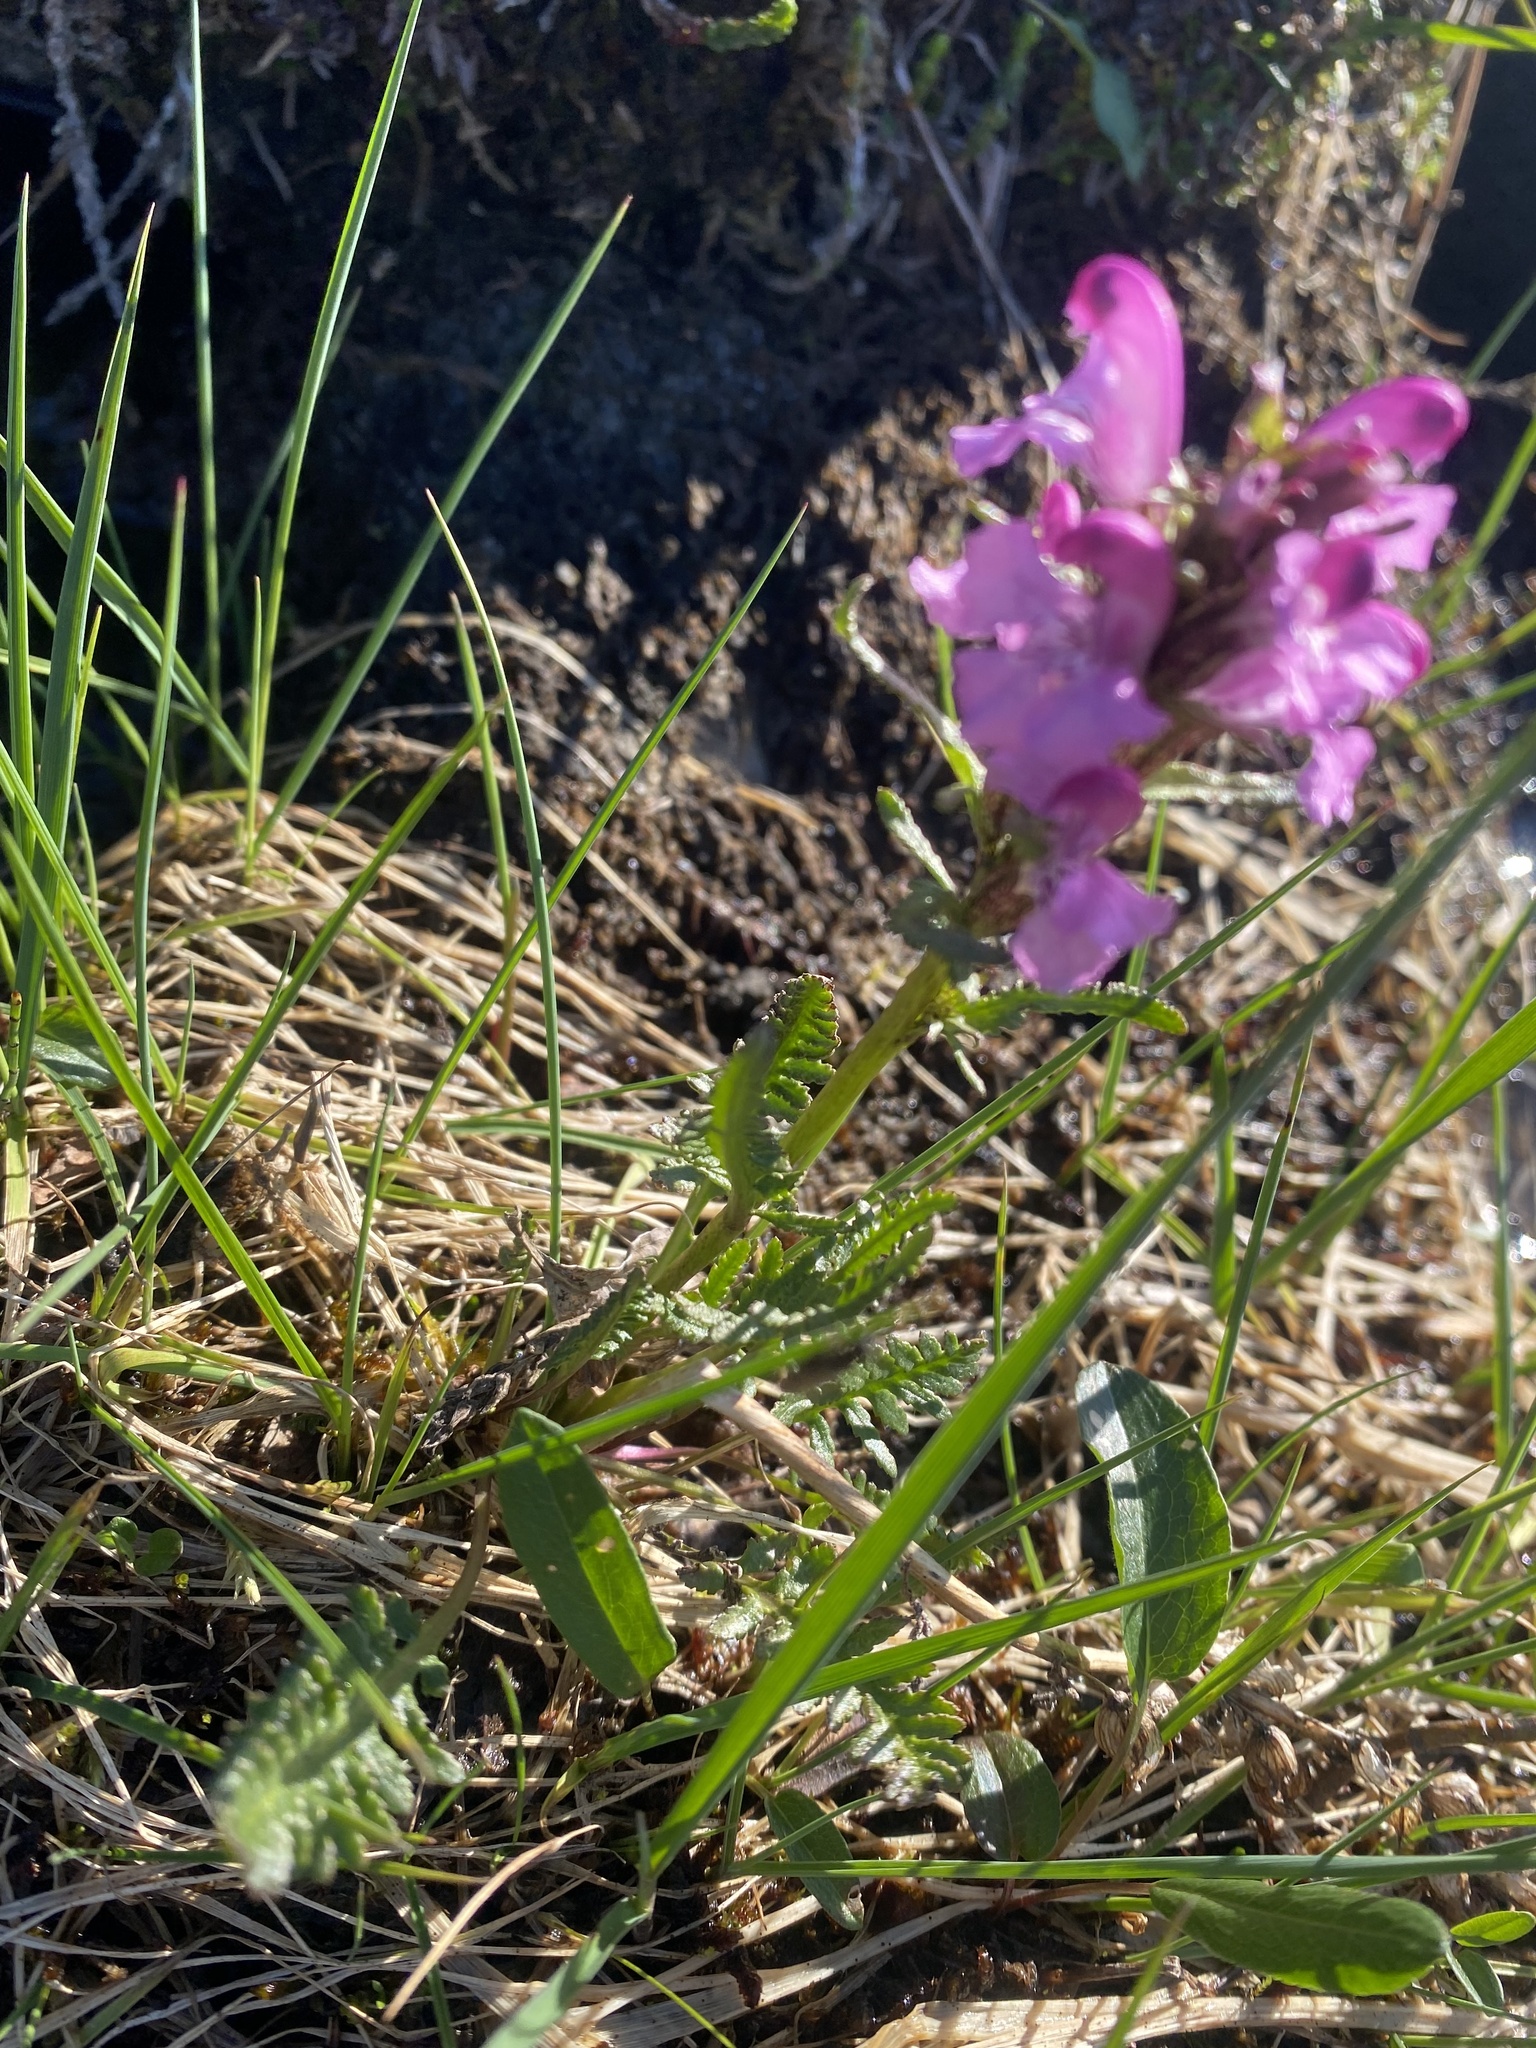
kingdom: Plantae
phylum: Tracheophyta
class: Magnoliopsida
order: Lamiales
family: Orobanchaceae
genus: Pedicularis
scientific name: Pedicularis interior
